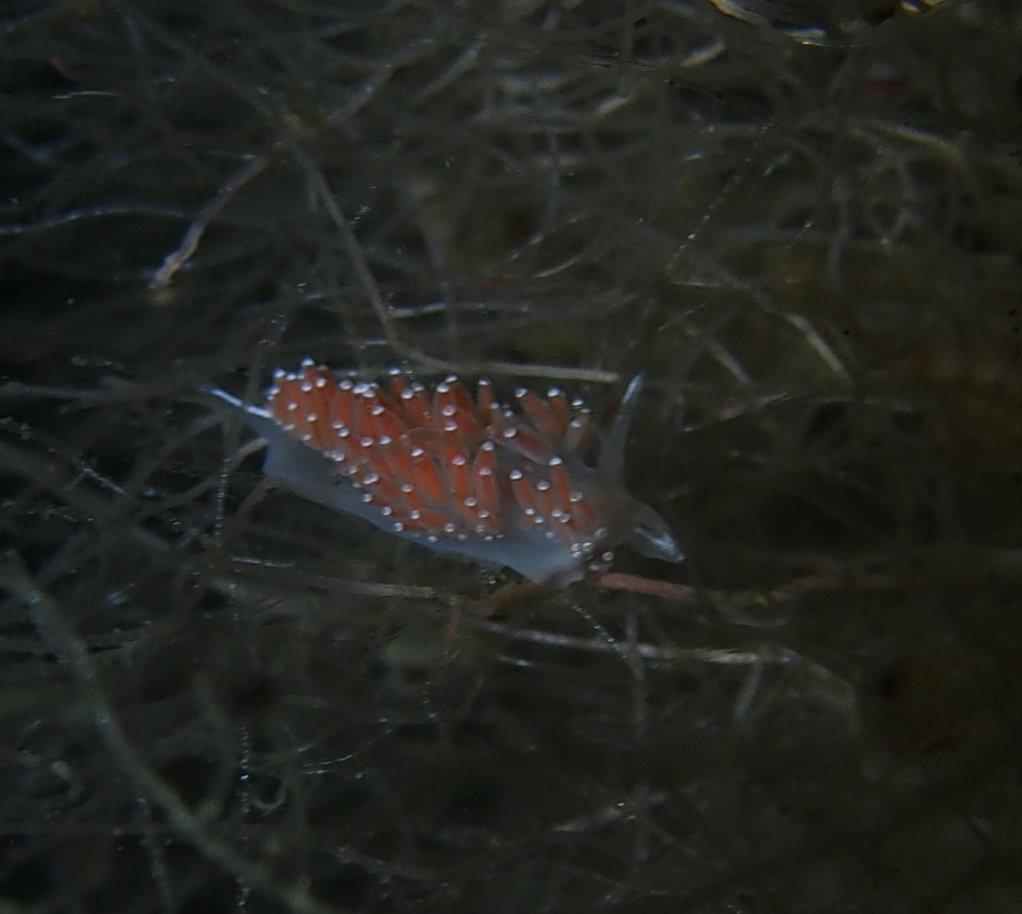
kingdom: Animalia
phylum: Mollusca
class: Gastropoda
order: Nudibranchia
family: Coryphellidae
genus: Coryphella
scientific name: Coryphella verrucosa
